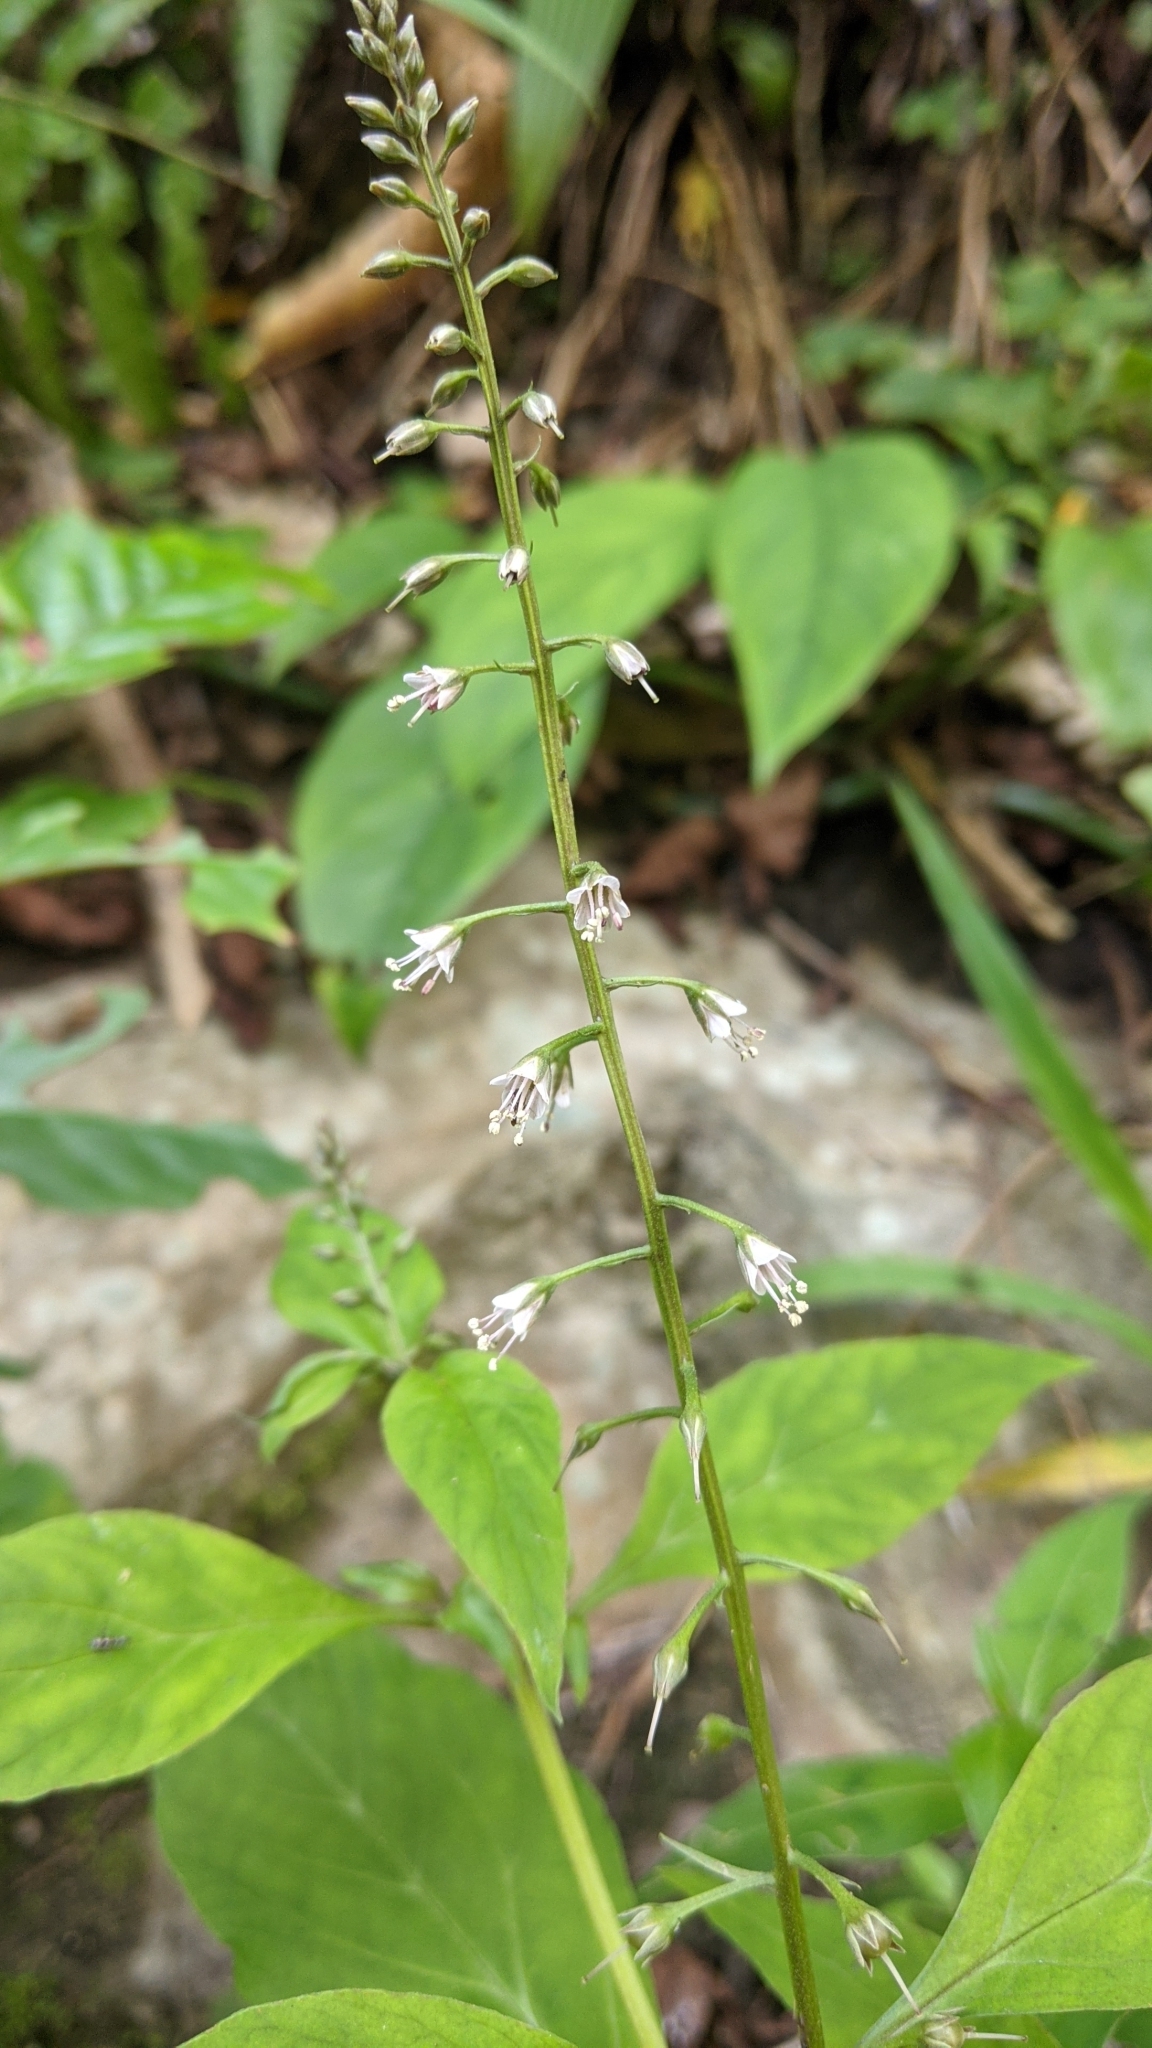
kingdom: Plantae
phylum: Tracheophyta
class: Magnoliopsida
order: Ericales
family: Primulaceae
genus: Lysimachia
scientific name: Lysimachia decurrens
